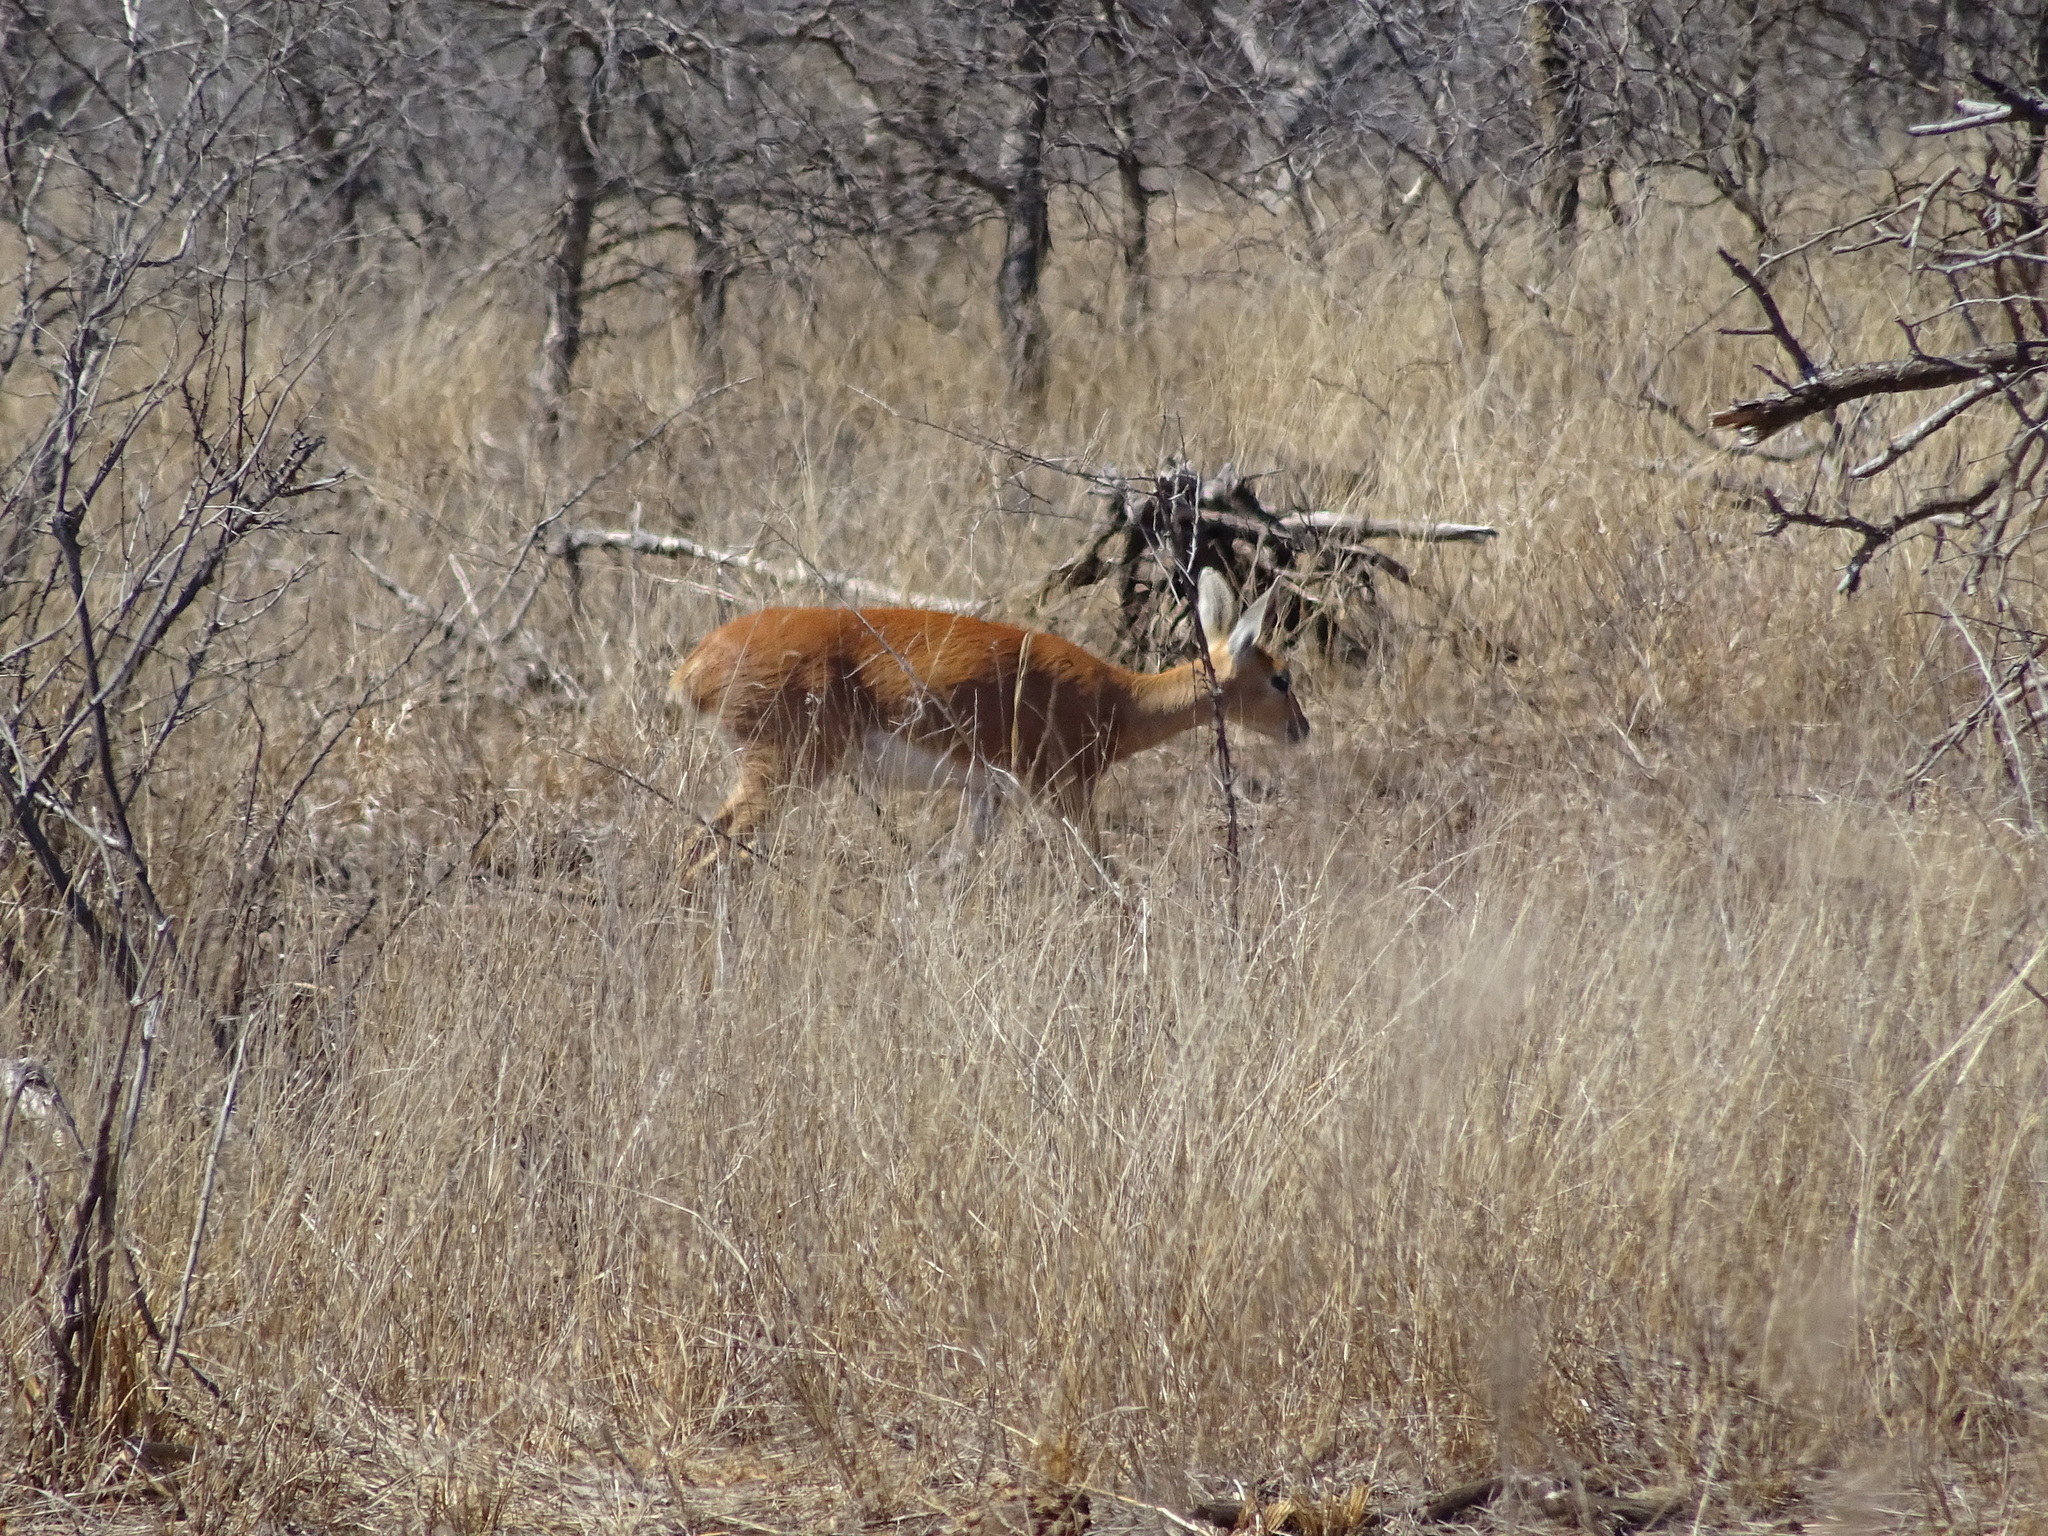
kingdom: Animalia
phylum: Chordata
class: Mammalia
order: Artiodactyla
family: Bovidae
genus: Raphicerus
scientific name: Raphicerus campestris
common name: Steenbok
